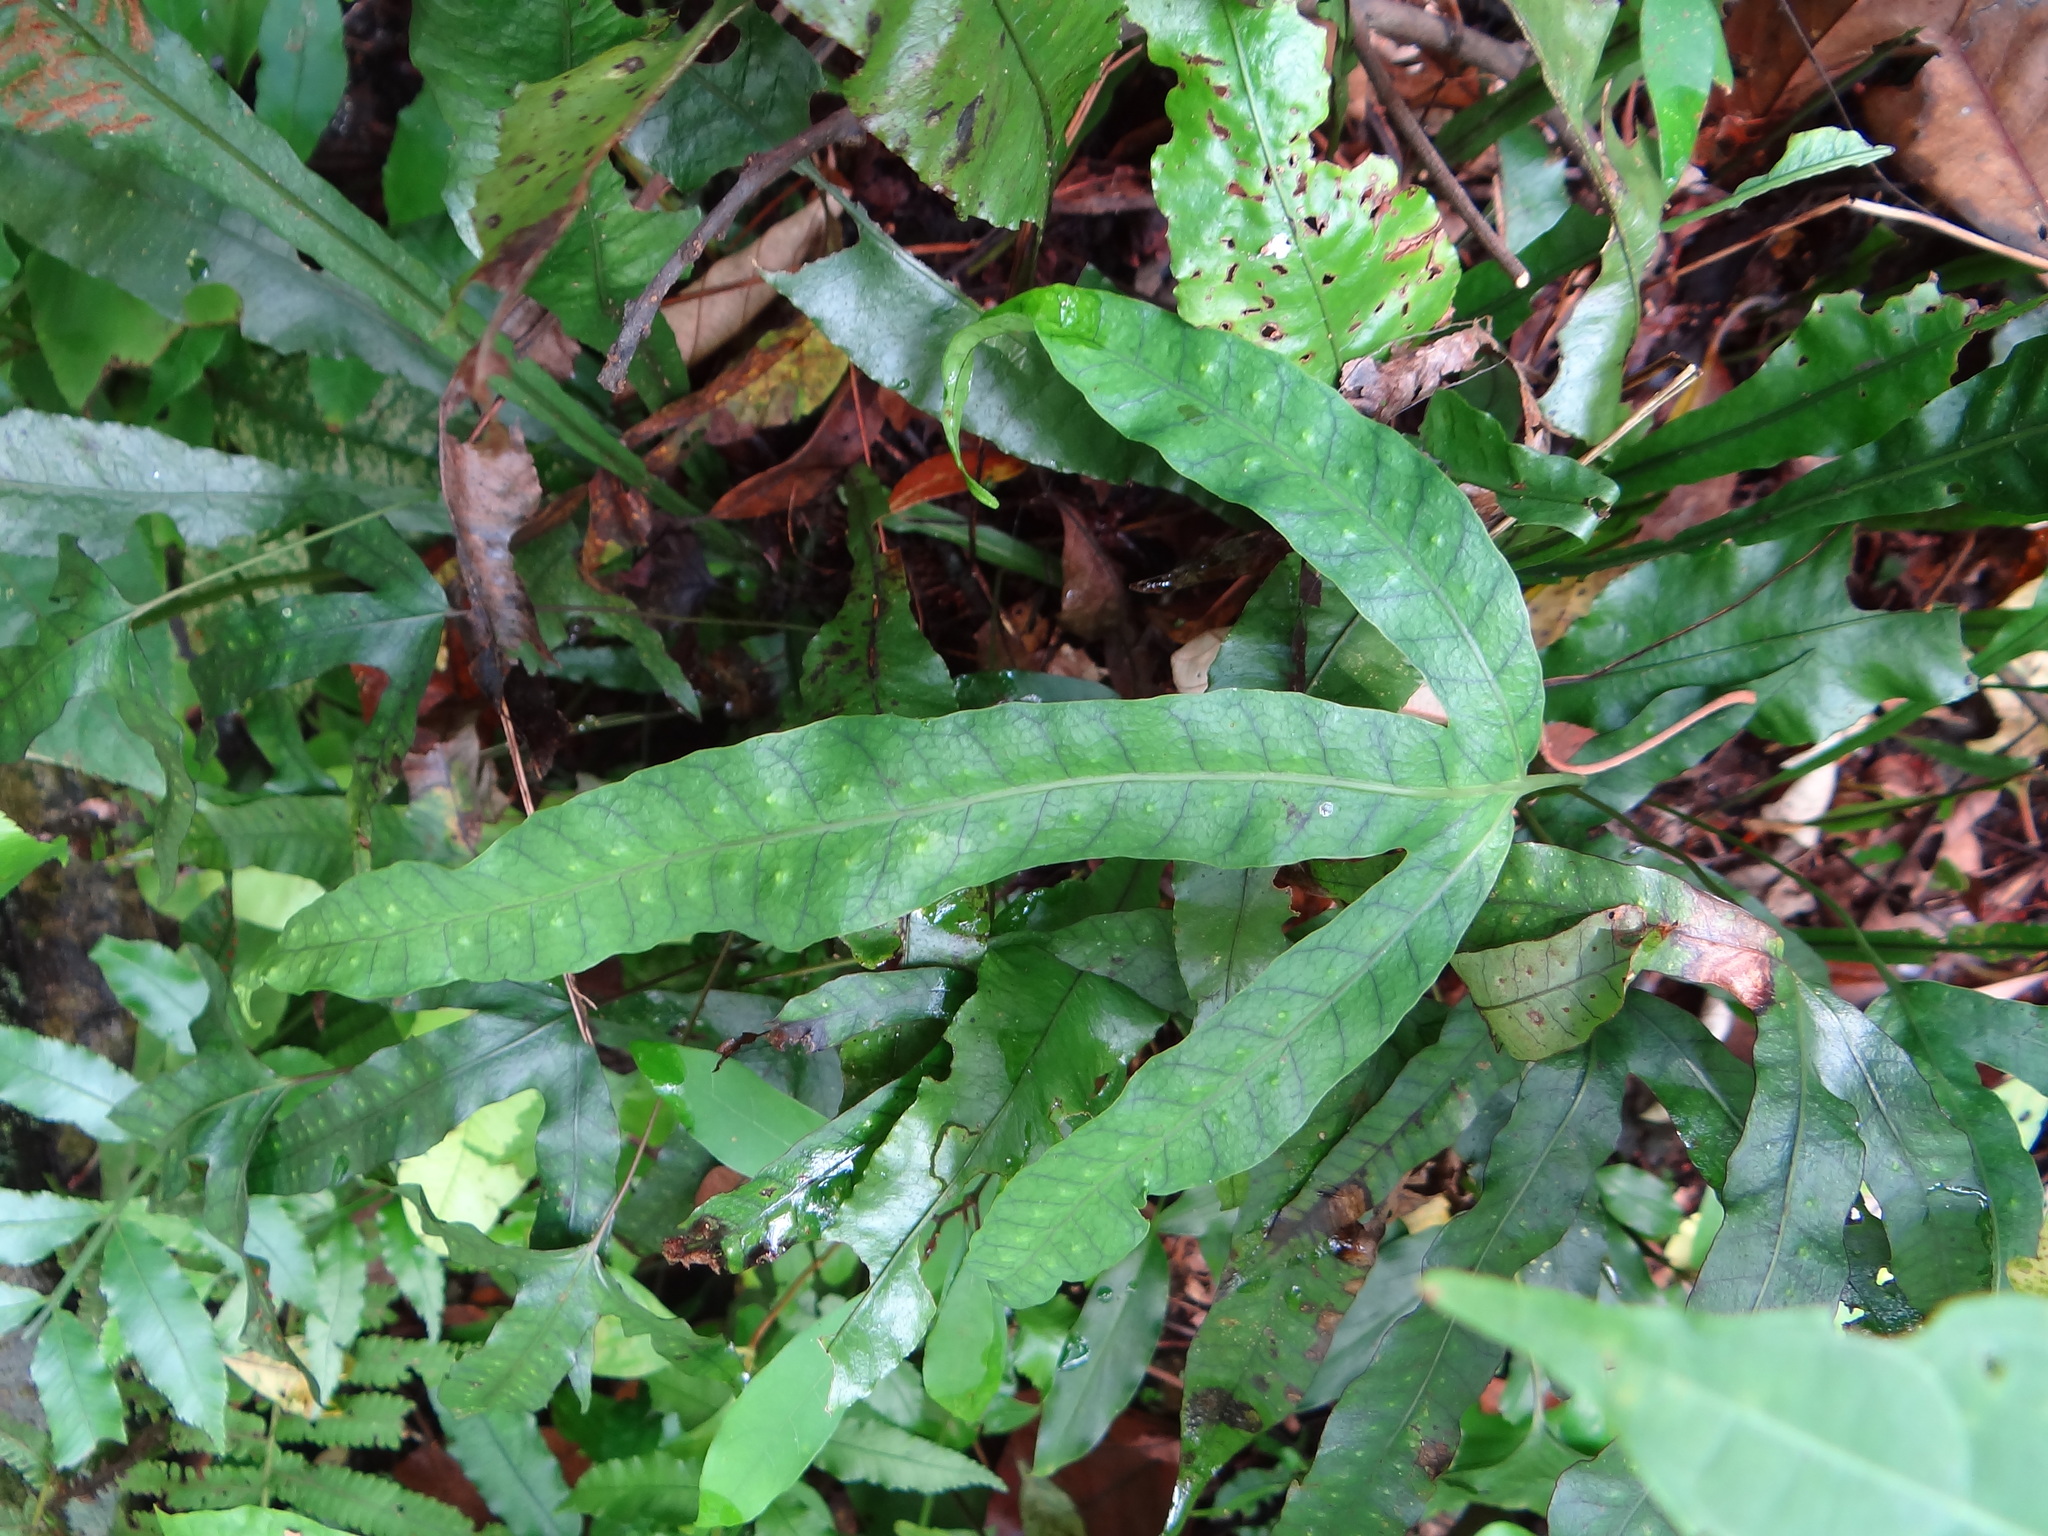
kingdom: Plantae
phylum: Tracheophyta
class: Polypodiopsida
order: Polypodiales
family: Polypodiaceae
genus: Selliguea
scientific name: Selliguea hastata
